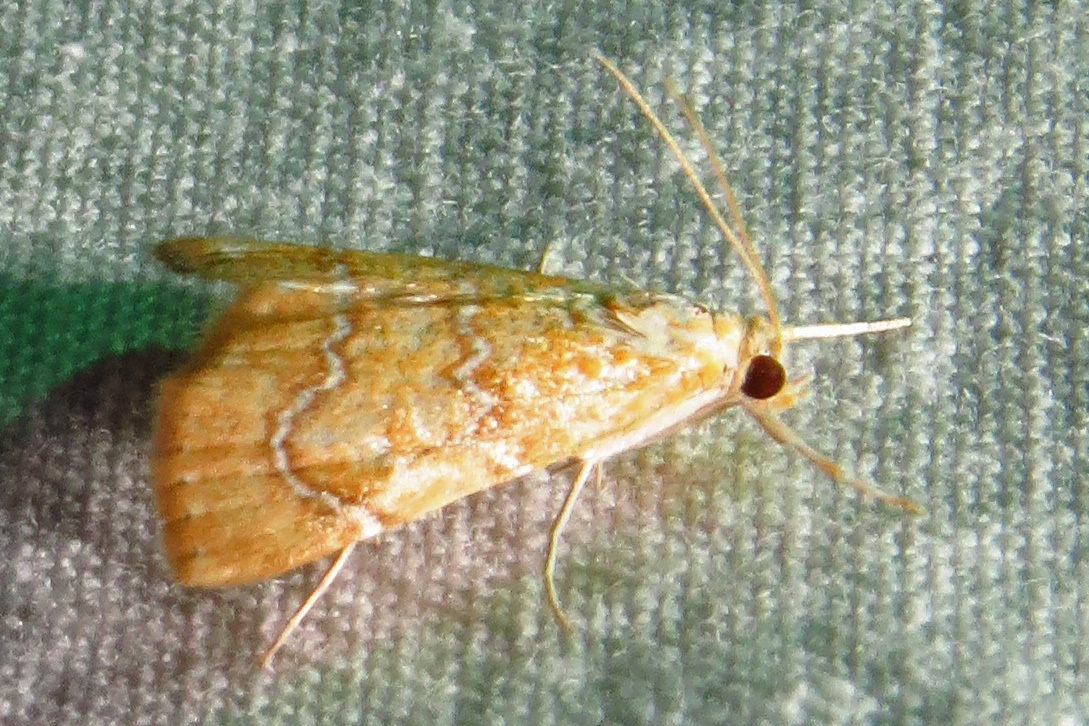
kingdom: Animalia
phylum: Arthropoda
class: Insecta
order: Lepidoptera
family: Crambidae
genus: Glaphyria
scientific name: Glaphyria sesquistrialis
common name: White-roped glaphyria
